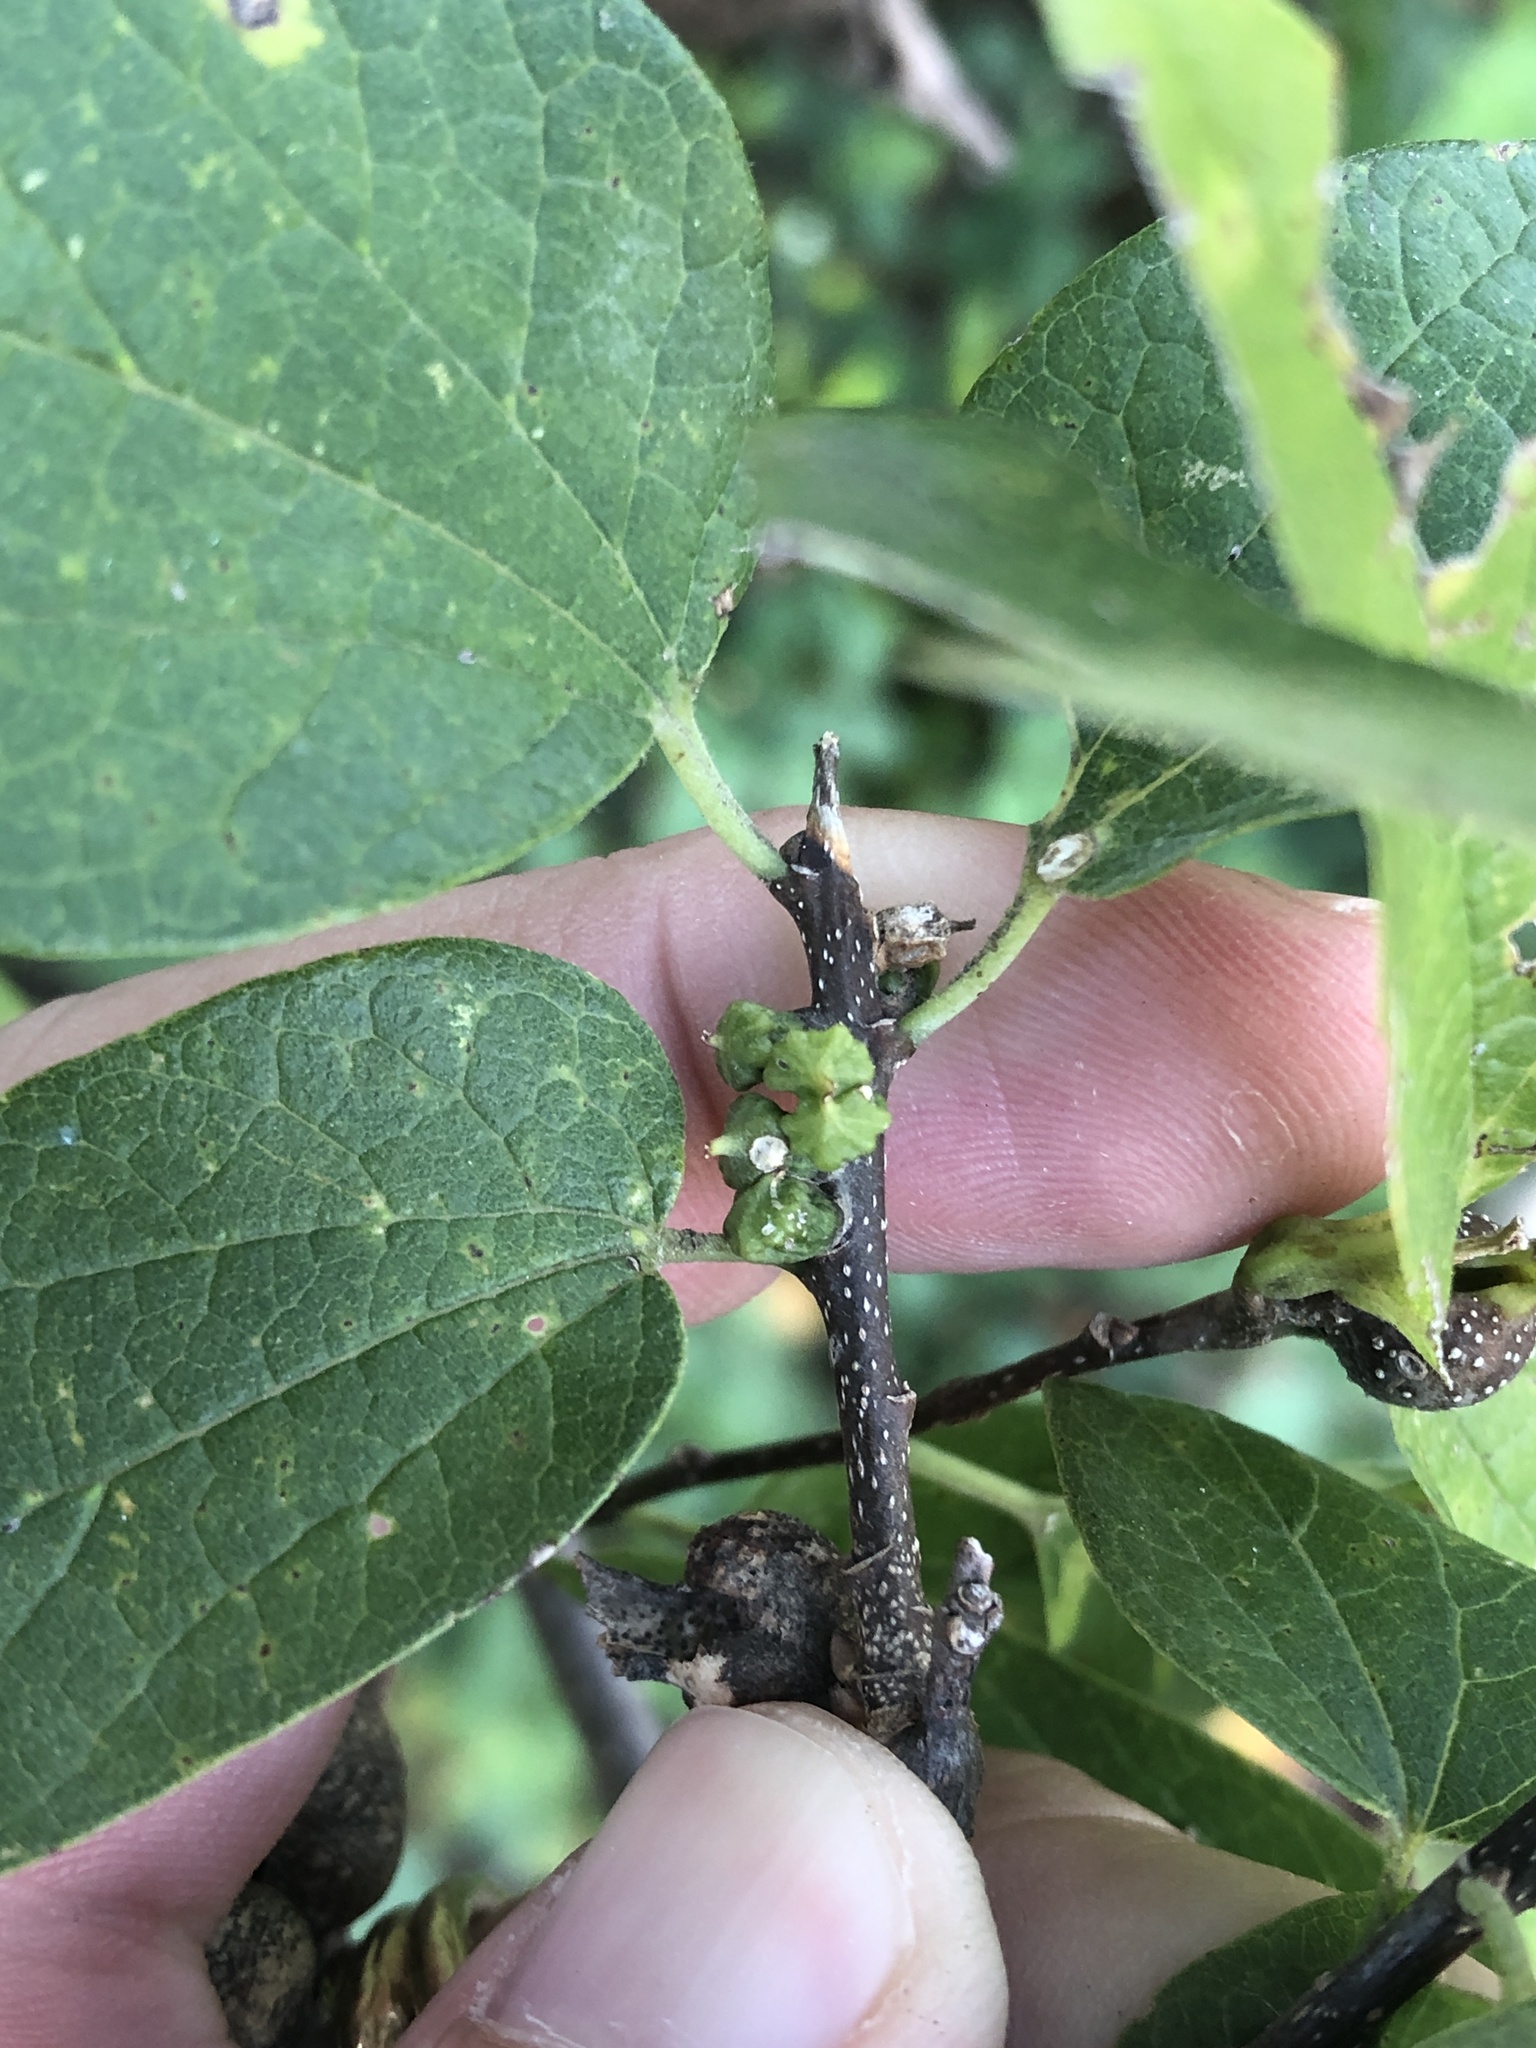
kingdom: Animalia
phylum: Arthropoda
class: Insecta
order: Diptera
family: Cecidomyiidae
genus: Celticecis
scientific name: Celticecis ramicola
